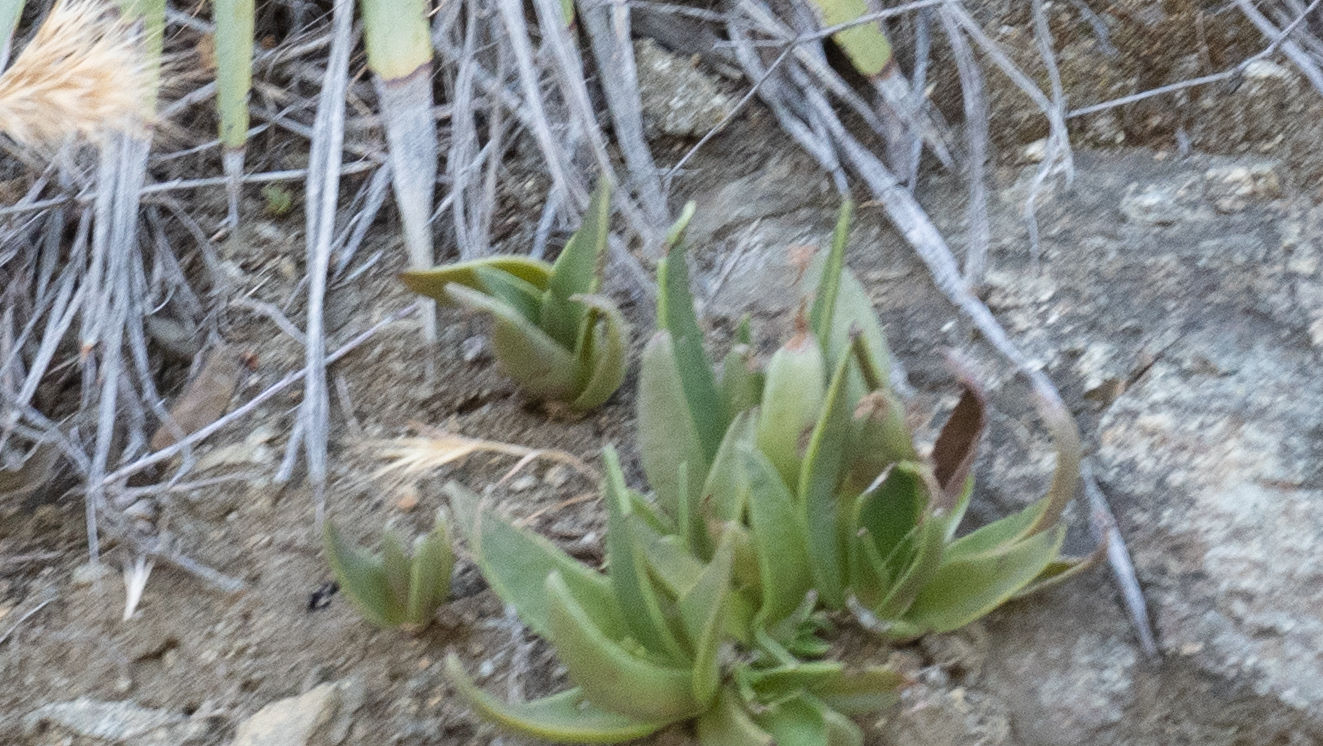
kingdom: Plantae
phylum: Tracheophyta
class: Magnoliopsida
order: Saxifragales
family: Crassulaceae
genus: Dudleya
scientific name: Dudleya lanceolata
